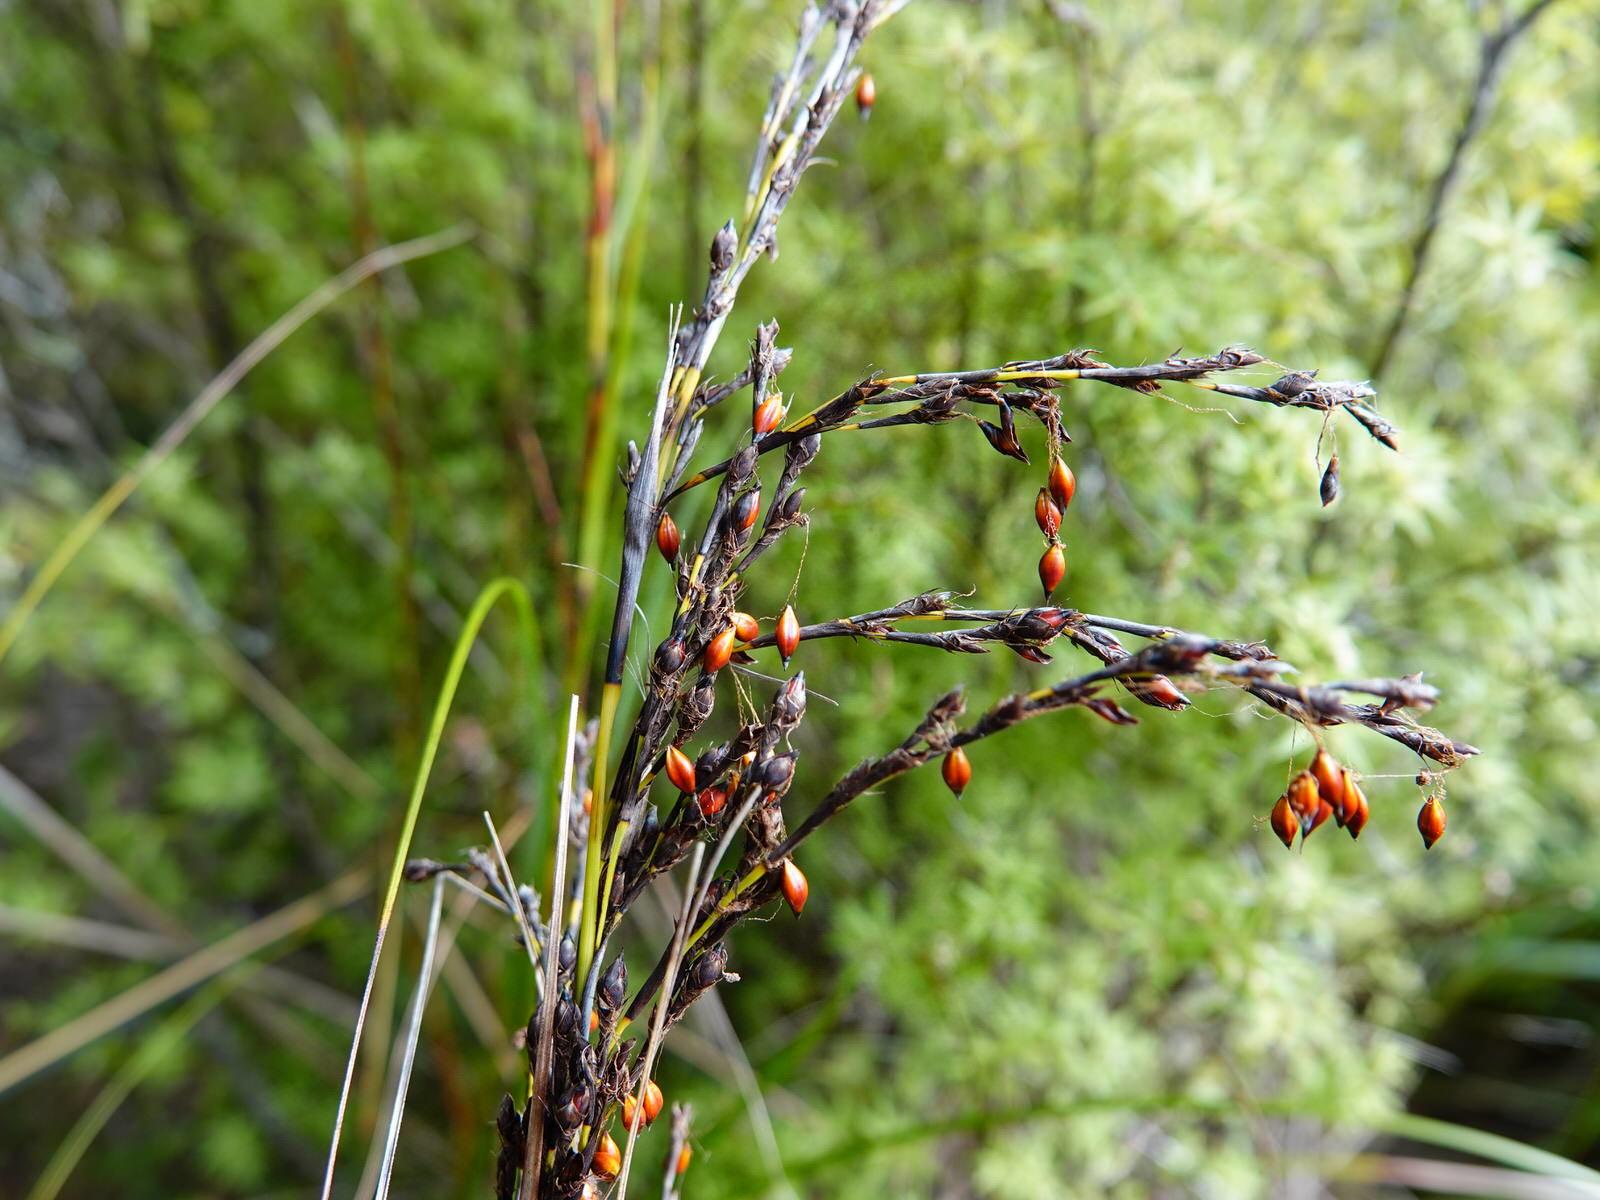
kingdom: Plantae
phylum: Tracheophyta
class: Liliopsida
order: Poales
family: Cyperaceae
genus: Gahnia
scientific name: Gahnia pauciflora
